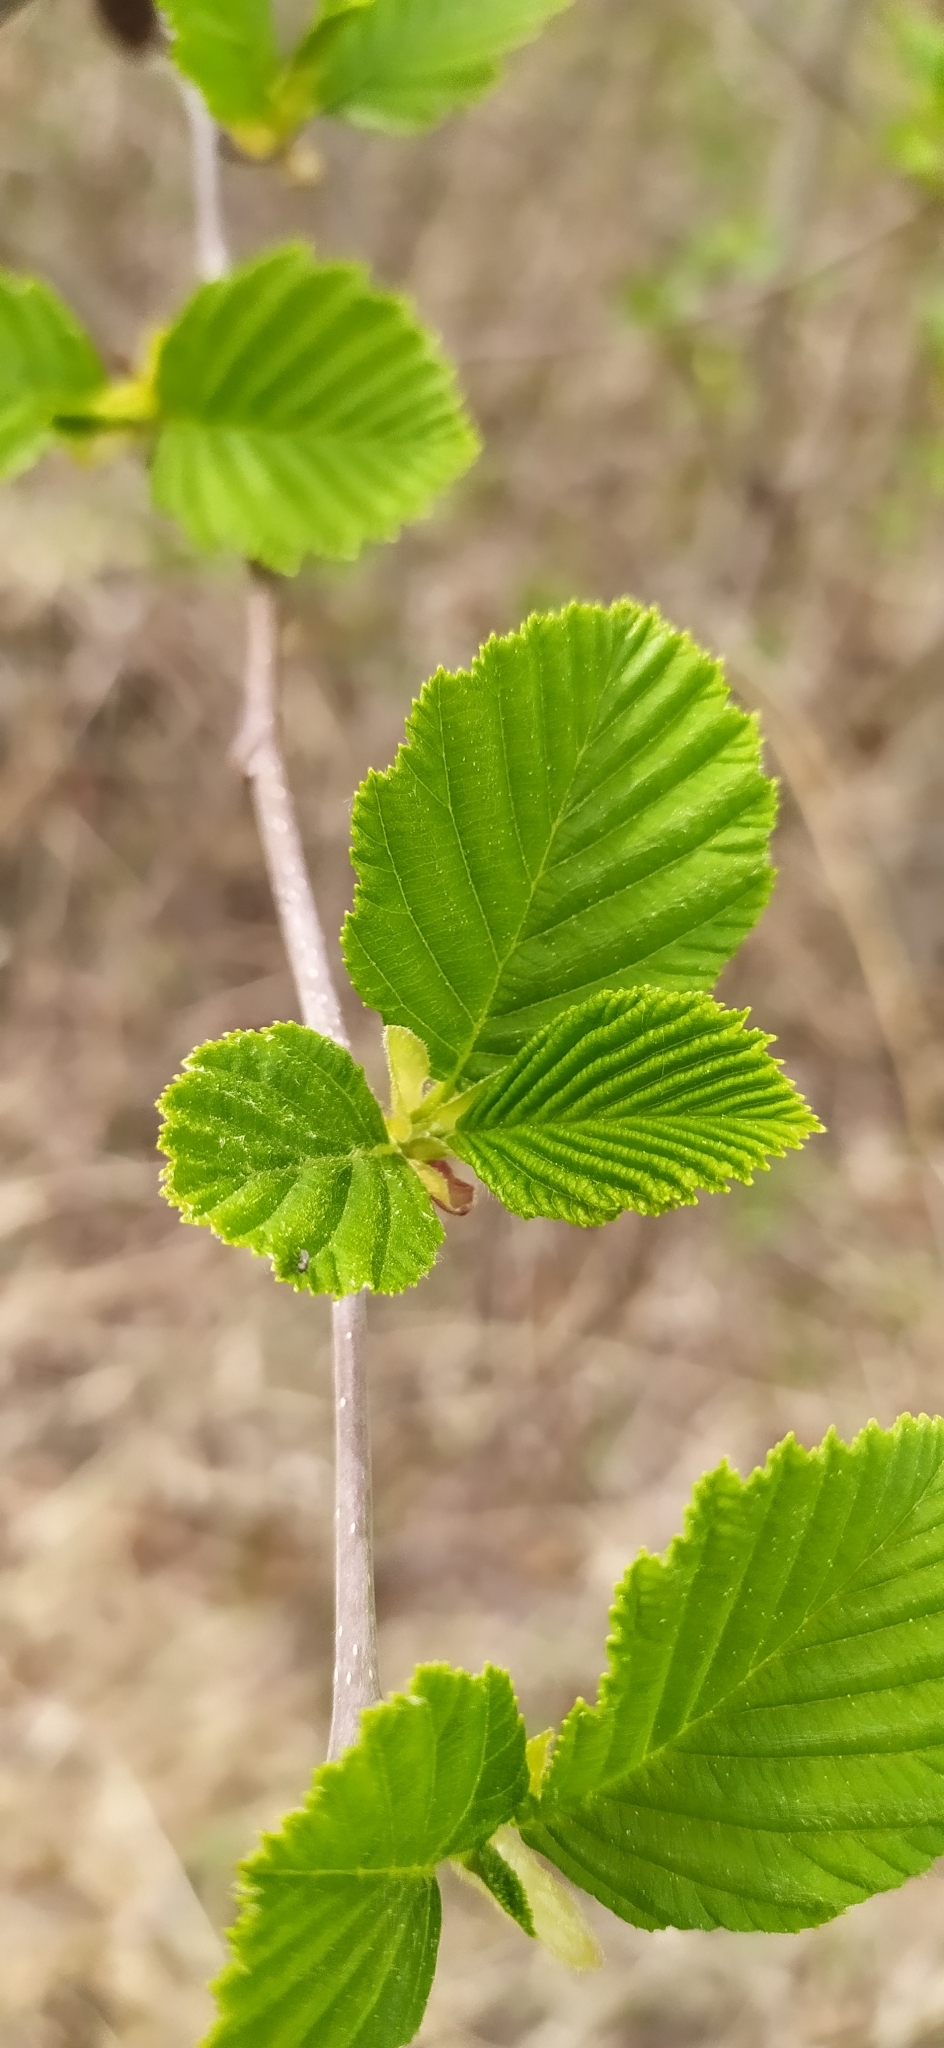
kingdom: Plantae
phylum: Tracheophyta
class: Magnoliopsida
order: Fagales
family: Betulaceae
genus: Alnus
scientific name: Alnus incana
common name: Grey alder
